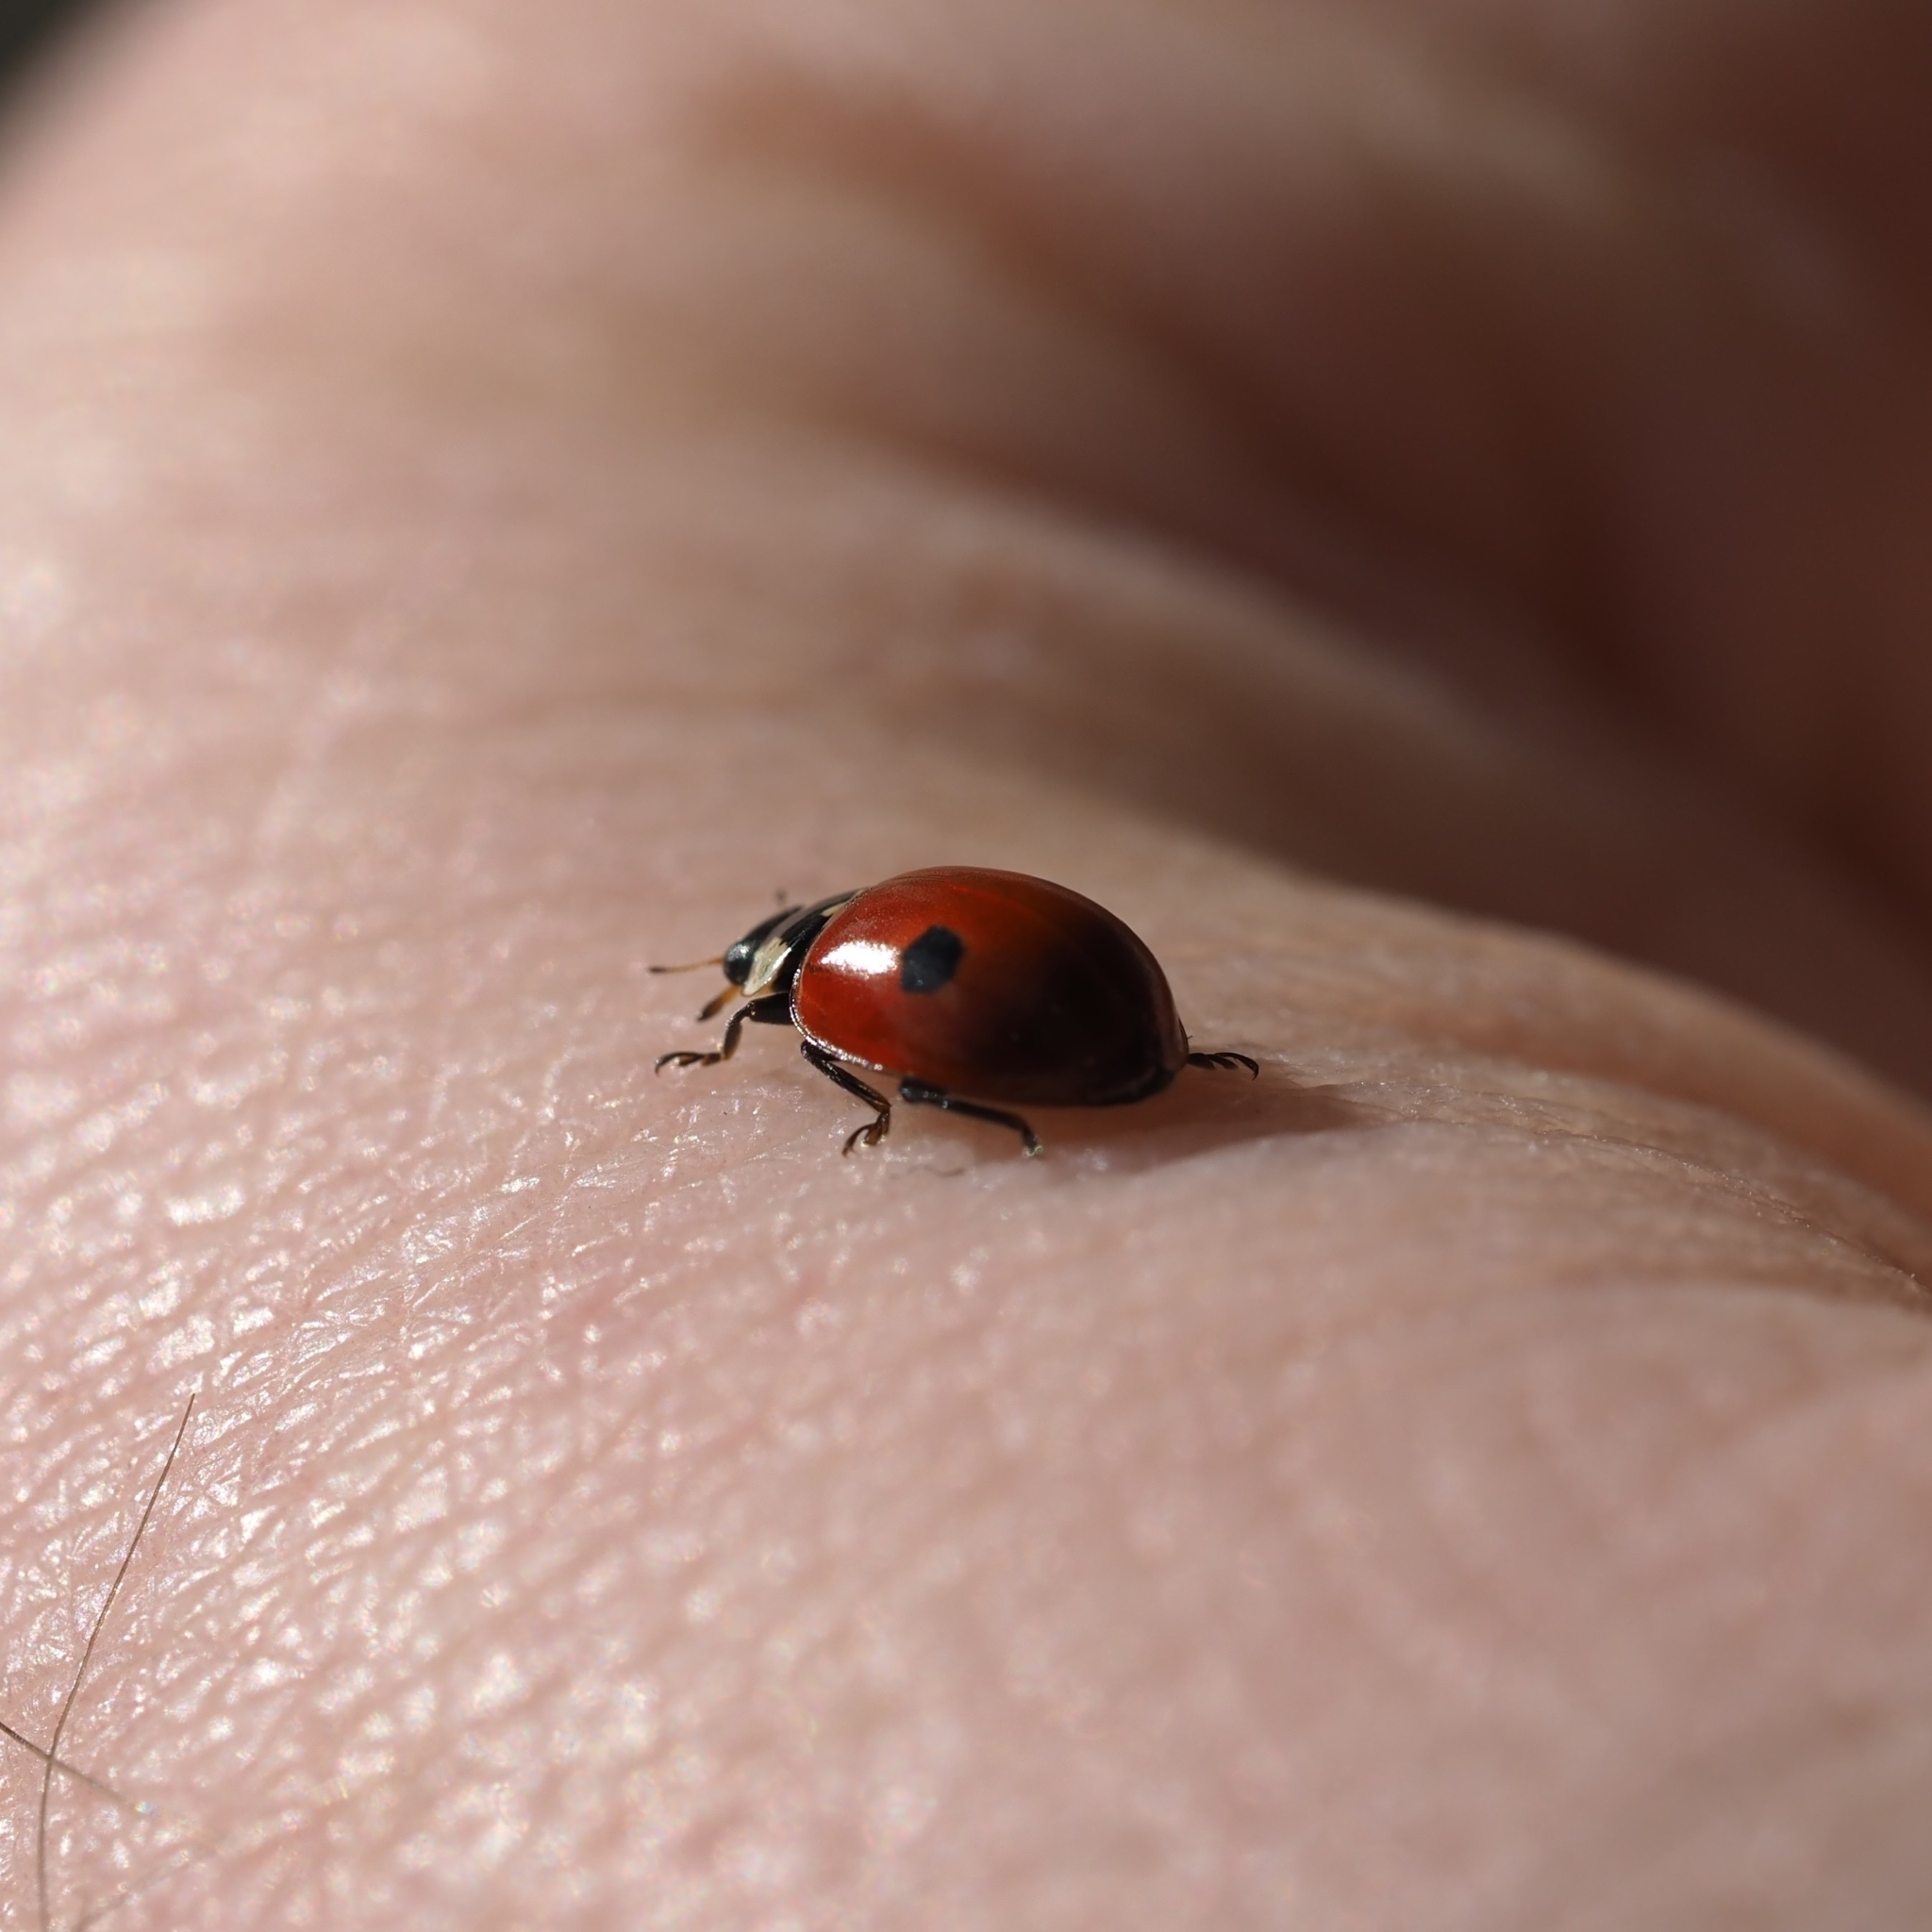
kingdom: Animalia
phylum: Arthropoda
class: Insecta
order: Coleoptera
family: Coccinellidae
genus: Adalia
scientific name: Adalia bipunctata
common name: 2-spot ladybird
